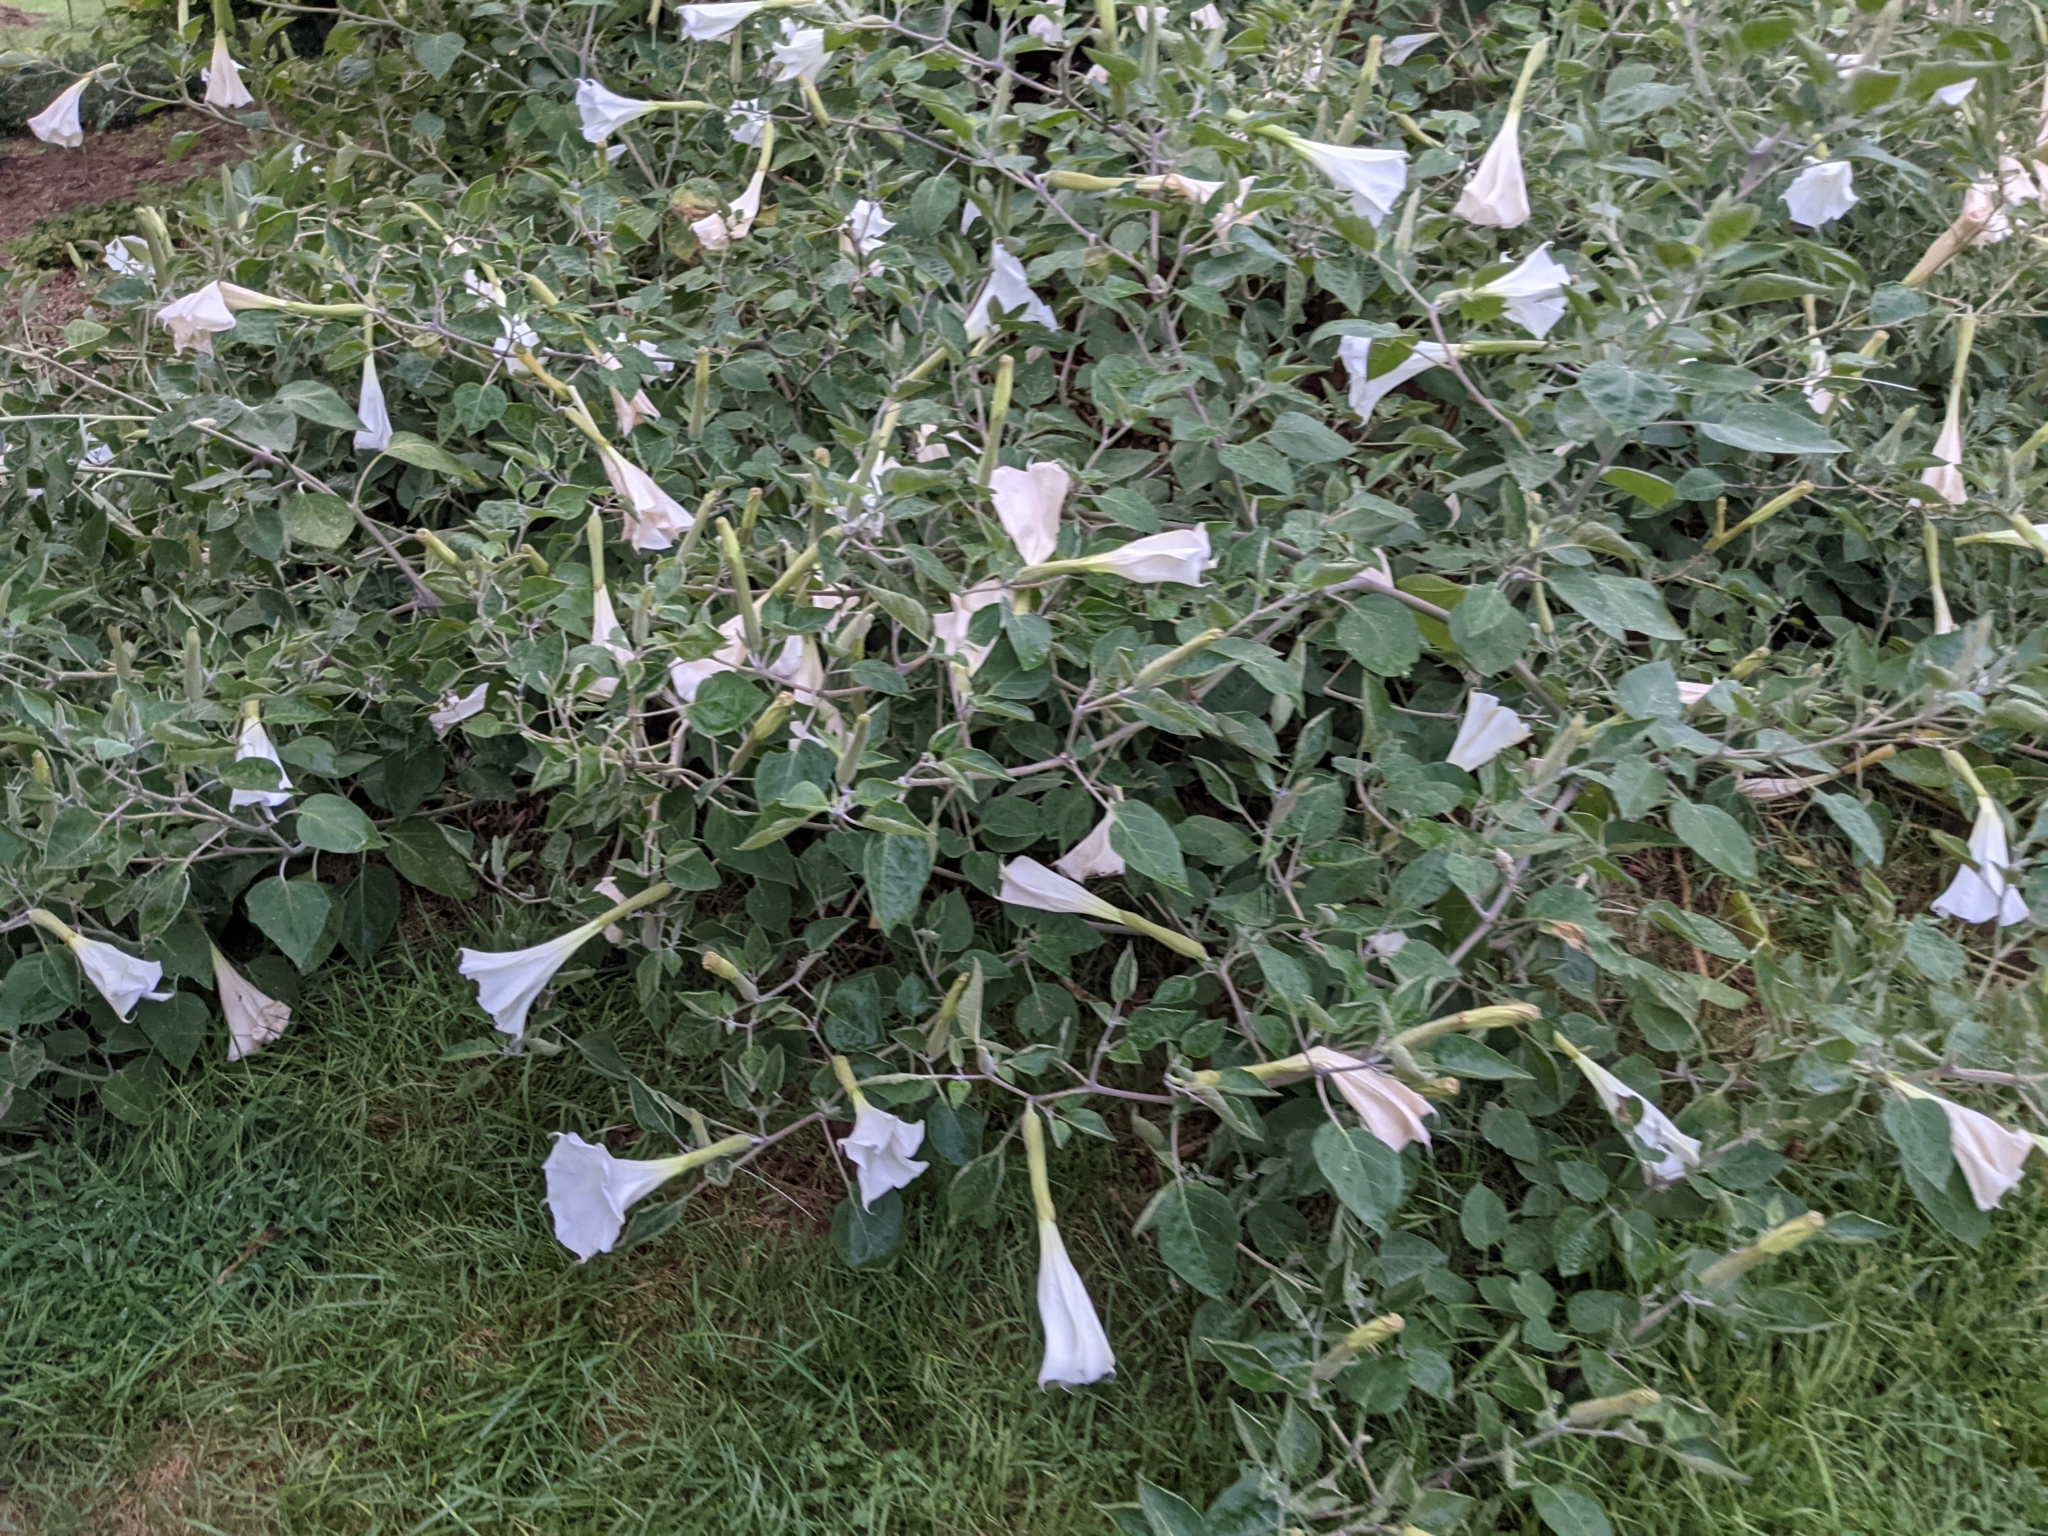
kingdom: Plantae
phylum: Tracheophyta
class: Magnoliopsida
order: Solanales
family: Solanaceae
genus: Datura
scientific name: Datura wrightii
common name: Sacred thorn-apple
